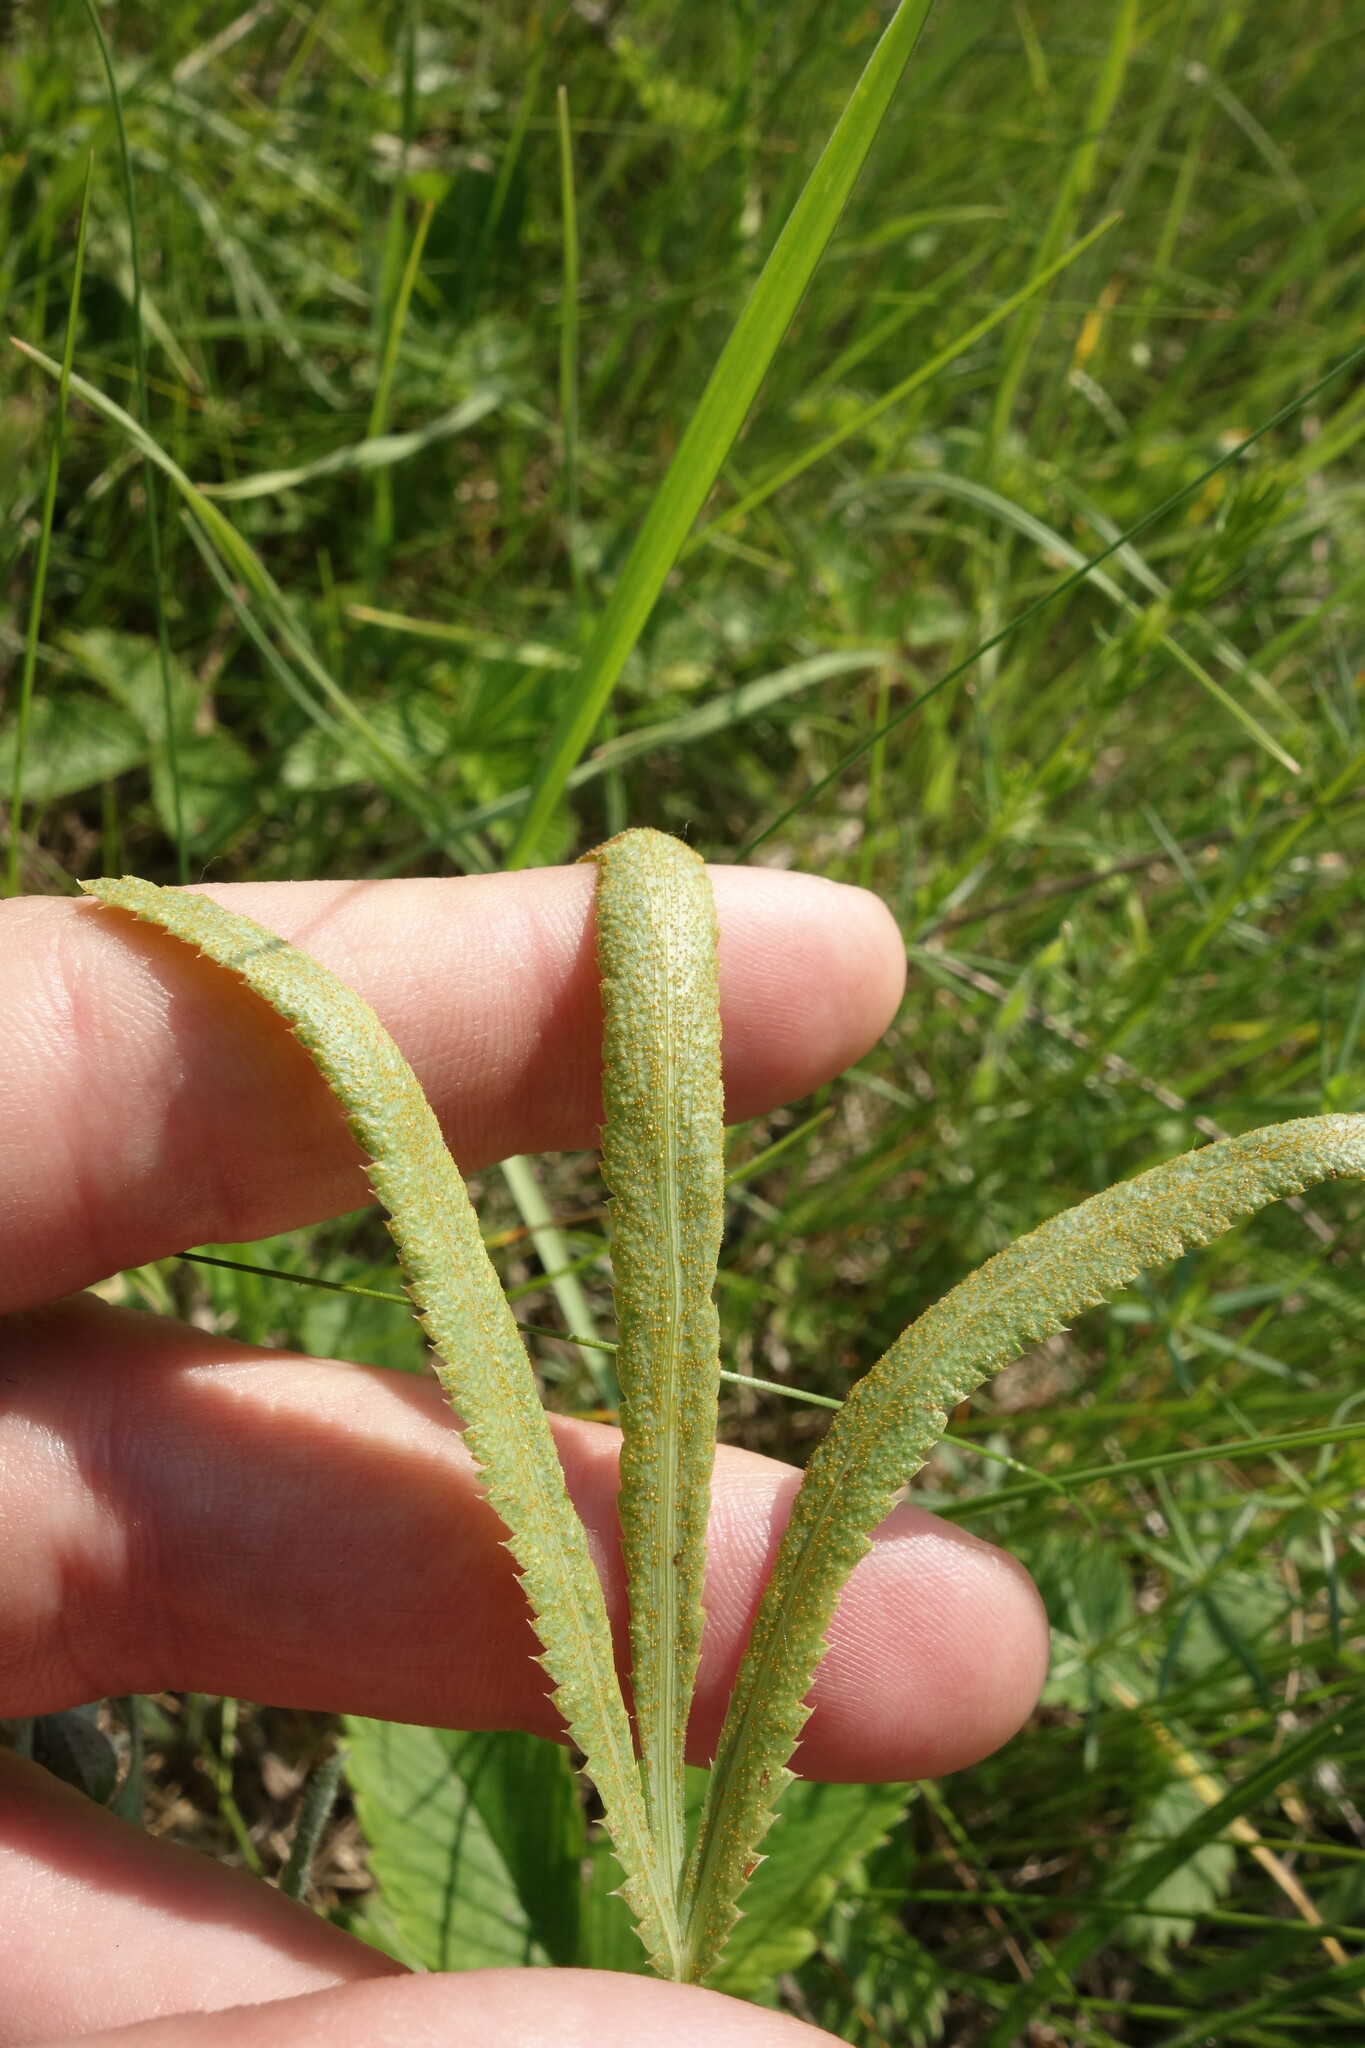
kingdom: Plantae
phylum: Tracheophyta
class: Magnoliopsida
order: Apiales
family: Apiaceae
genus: Falcaria
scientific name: Falcaria vulgaris
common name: Longleaf
